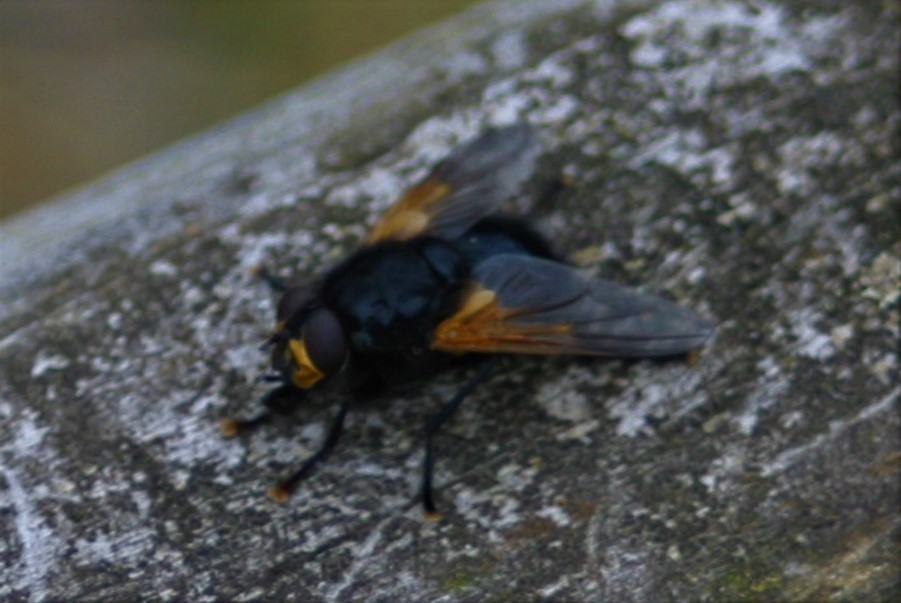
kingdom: Animalia
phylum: Arthropoda
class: Insecta
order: Diptera
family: Muscidae
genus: Mesembrina
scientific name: Mesembrina meridiana
